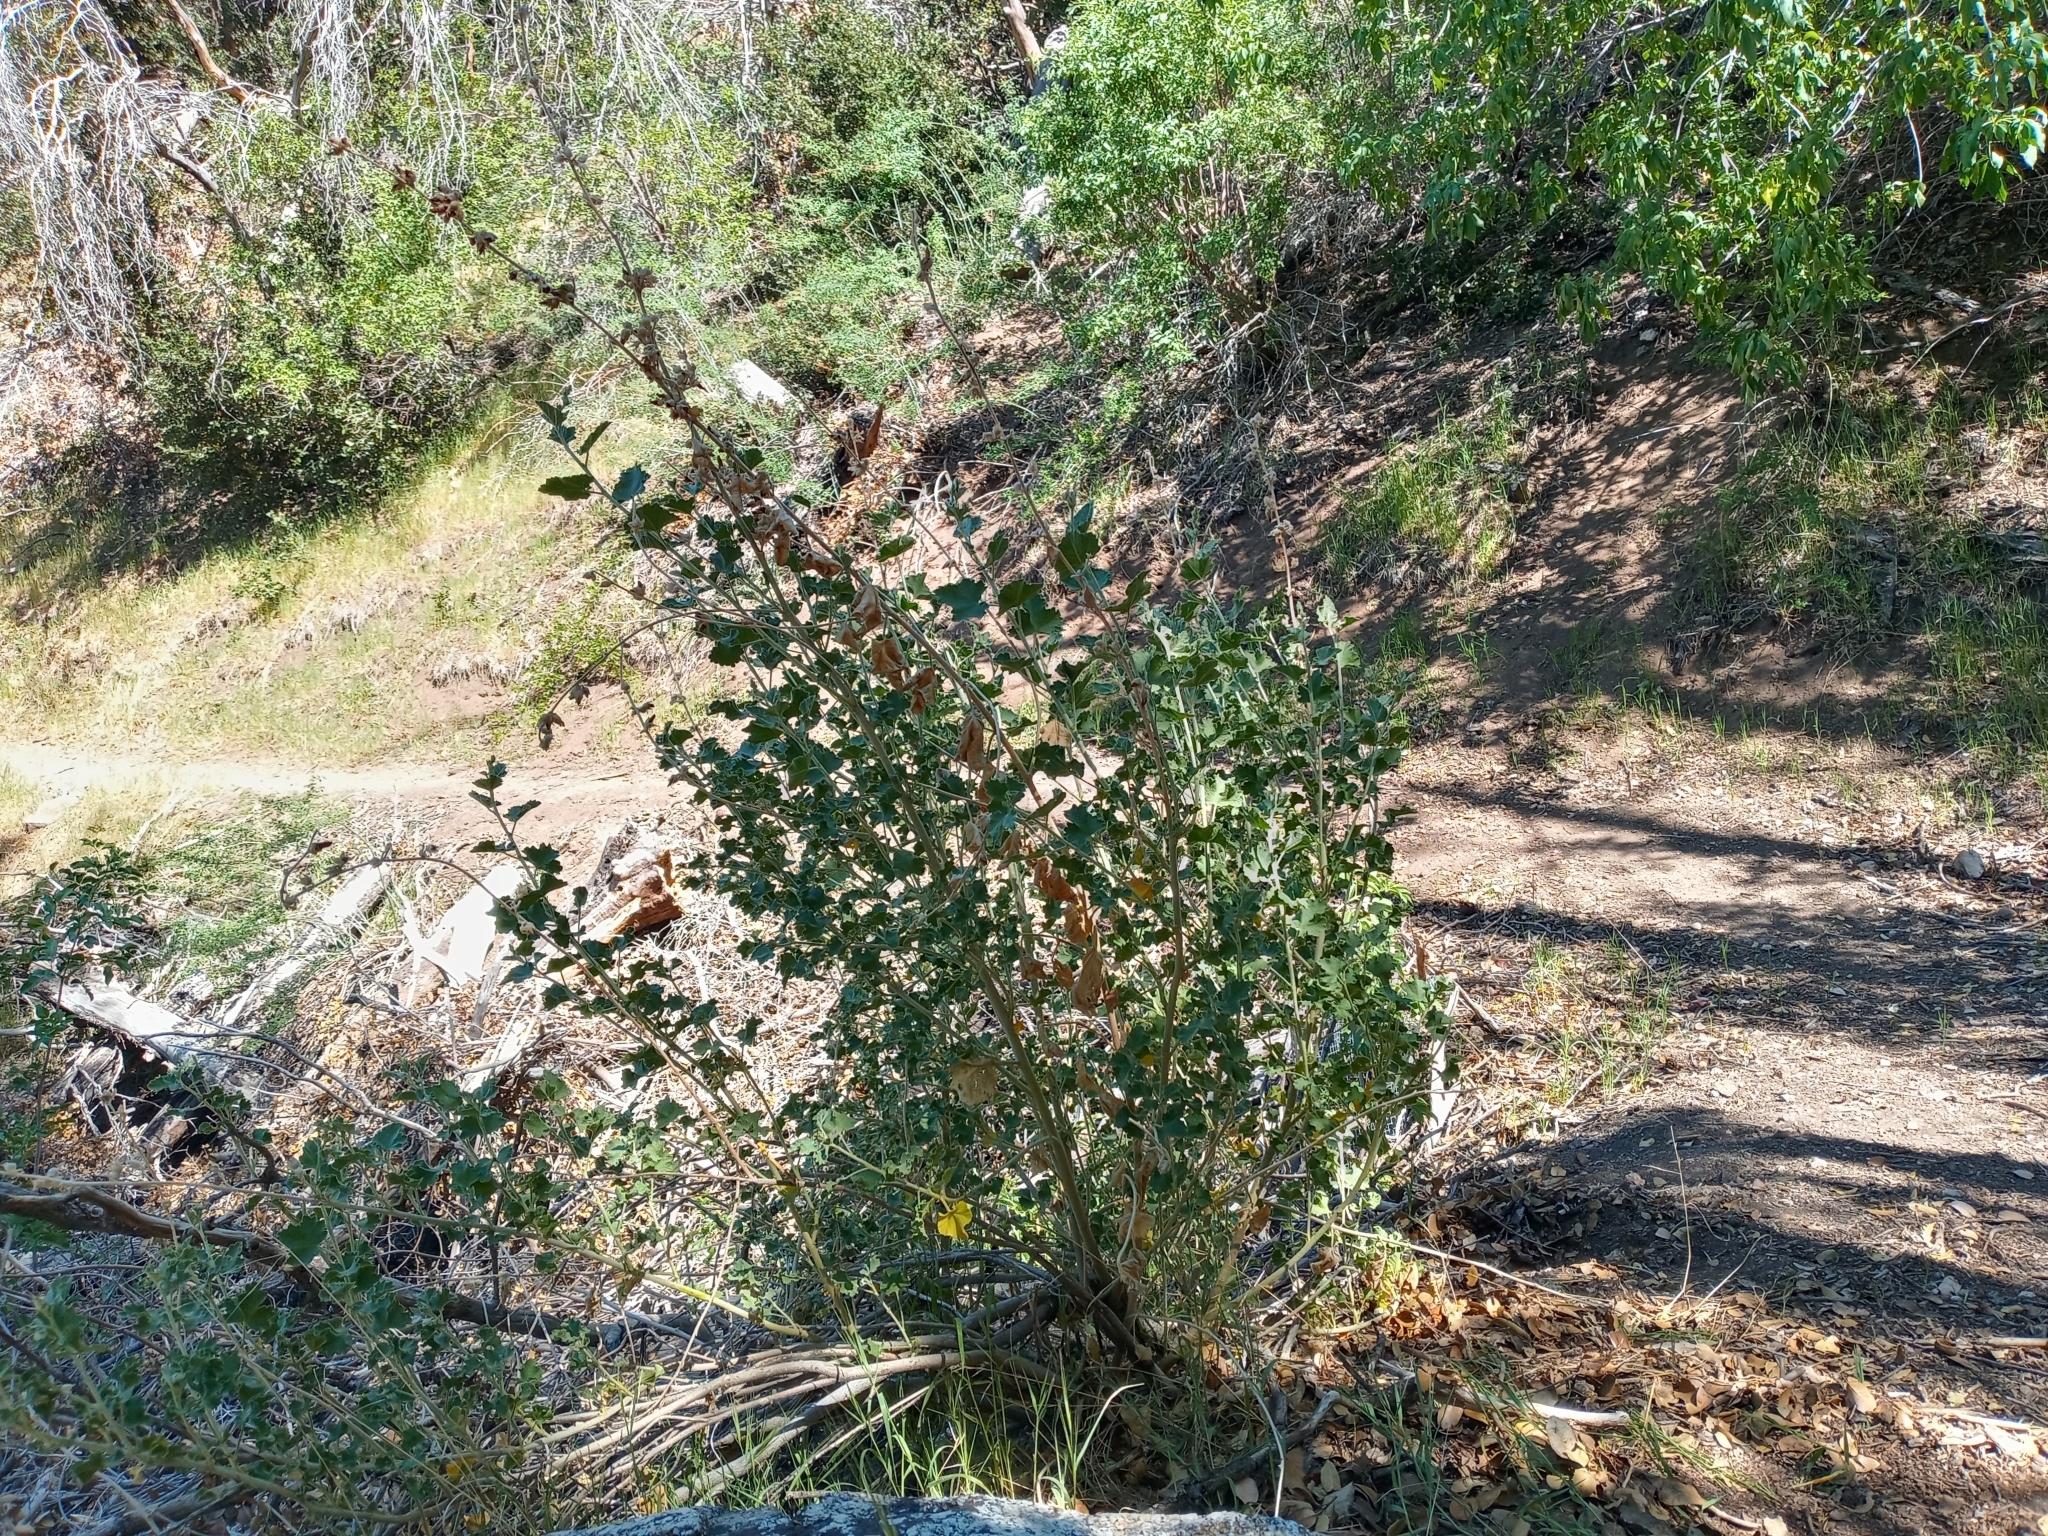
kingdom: Plantae
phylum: Tracheophyta
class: Magnoliopsida
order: Malvales
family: Malvaceae
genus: Malacothamnus
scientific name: Malacothamnus fremontii
